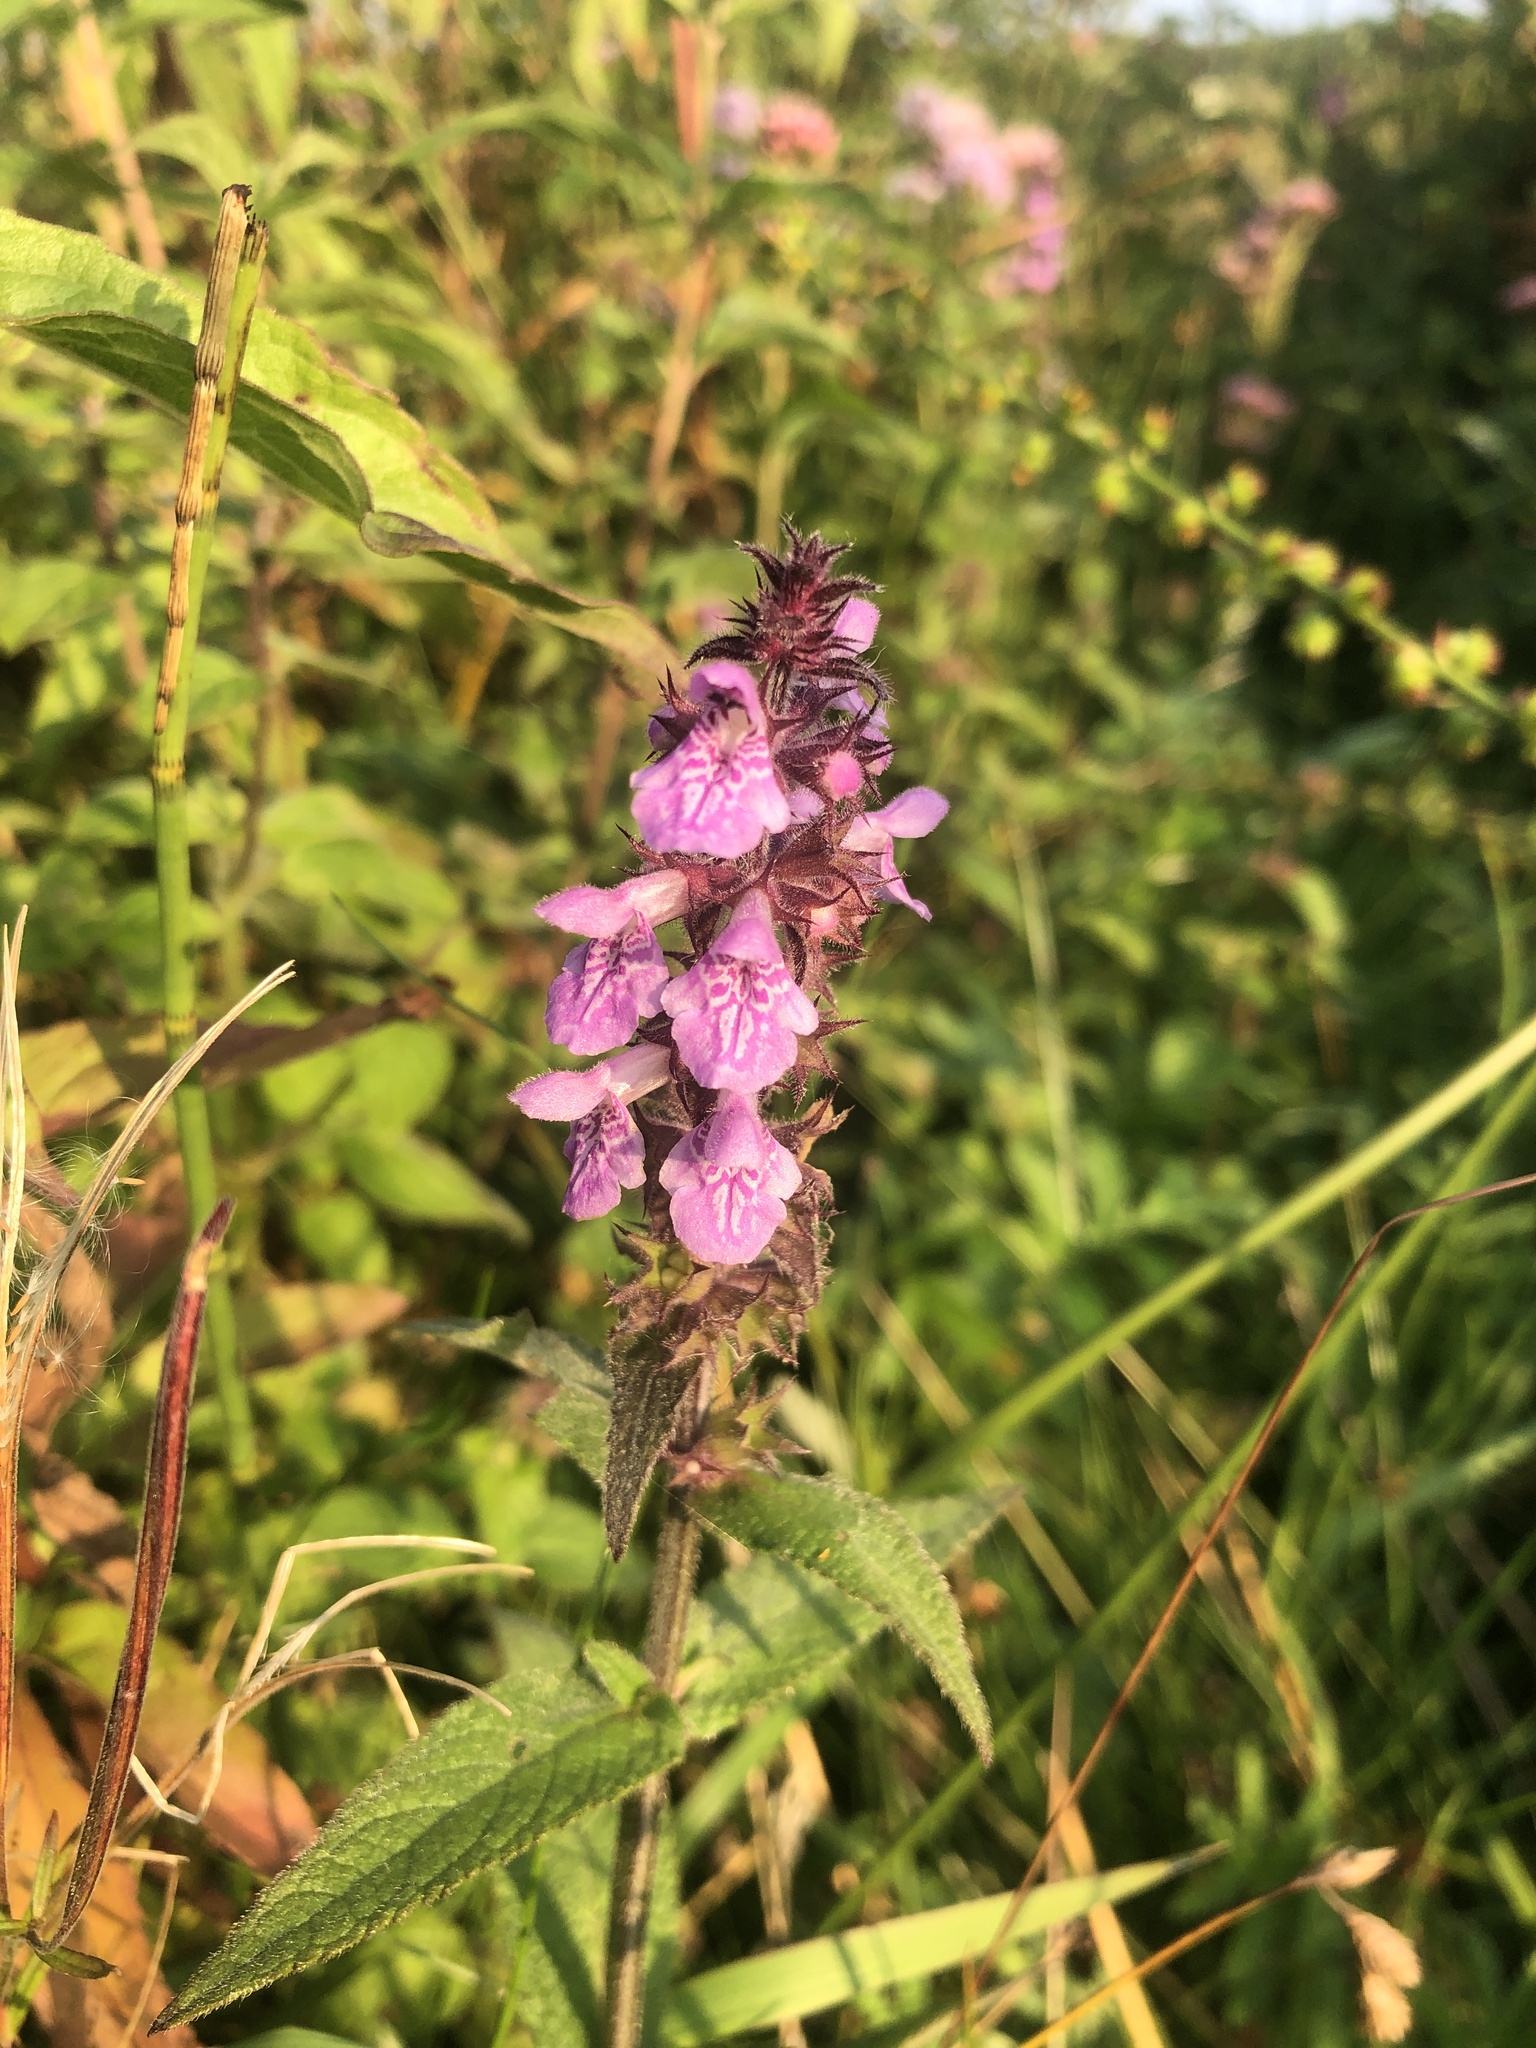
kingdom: Plantae
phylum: Tracheophyta
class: Magnoliopsida
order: Lamiales
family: Lamiaceae
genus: Stachys
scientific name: Stachys palustris
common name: Marsh woundwort
